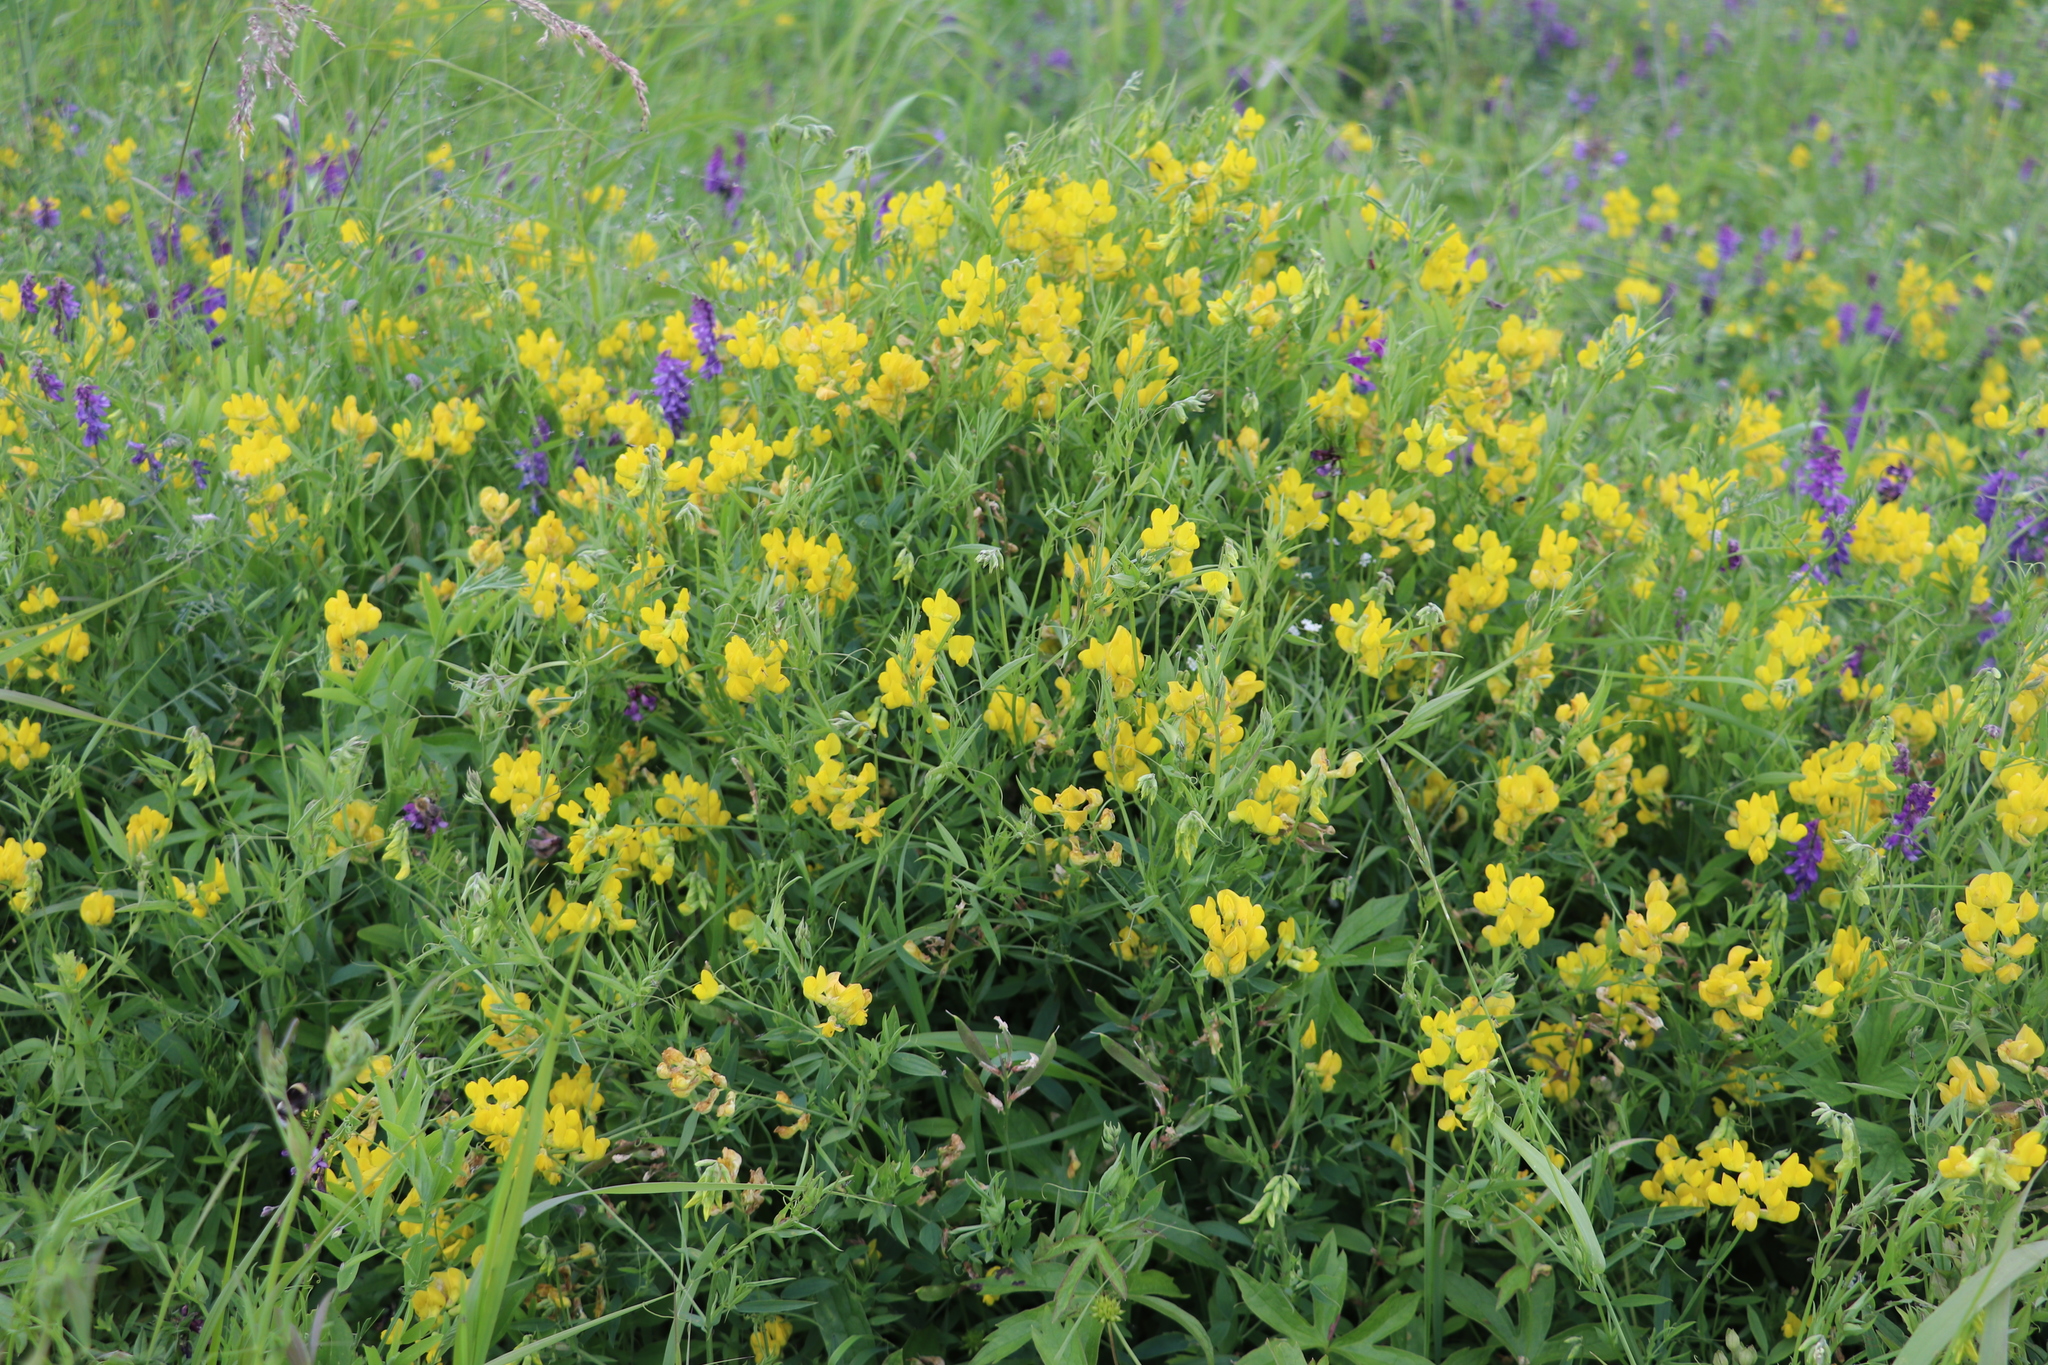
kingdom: Plantae
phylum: Tracheophyta
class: Magnoliopsida
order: Fabales
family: Fabaceae
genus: Lathyrus
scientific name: Lathyrus pratensis
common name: Meadow vetchling
